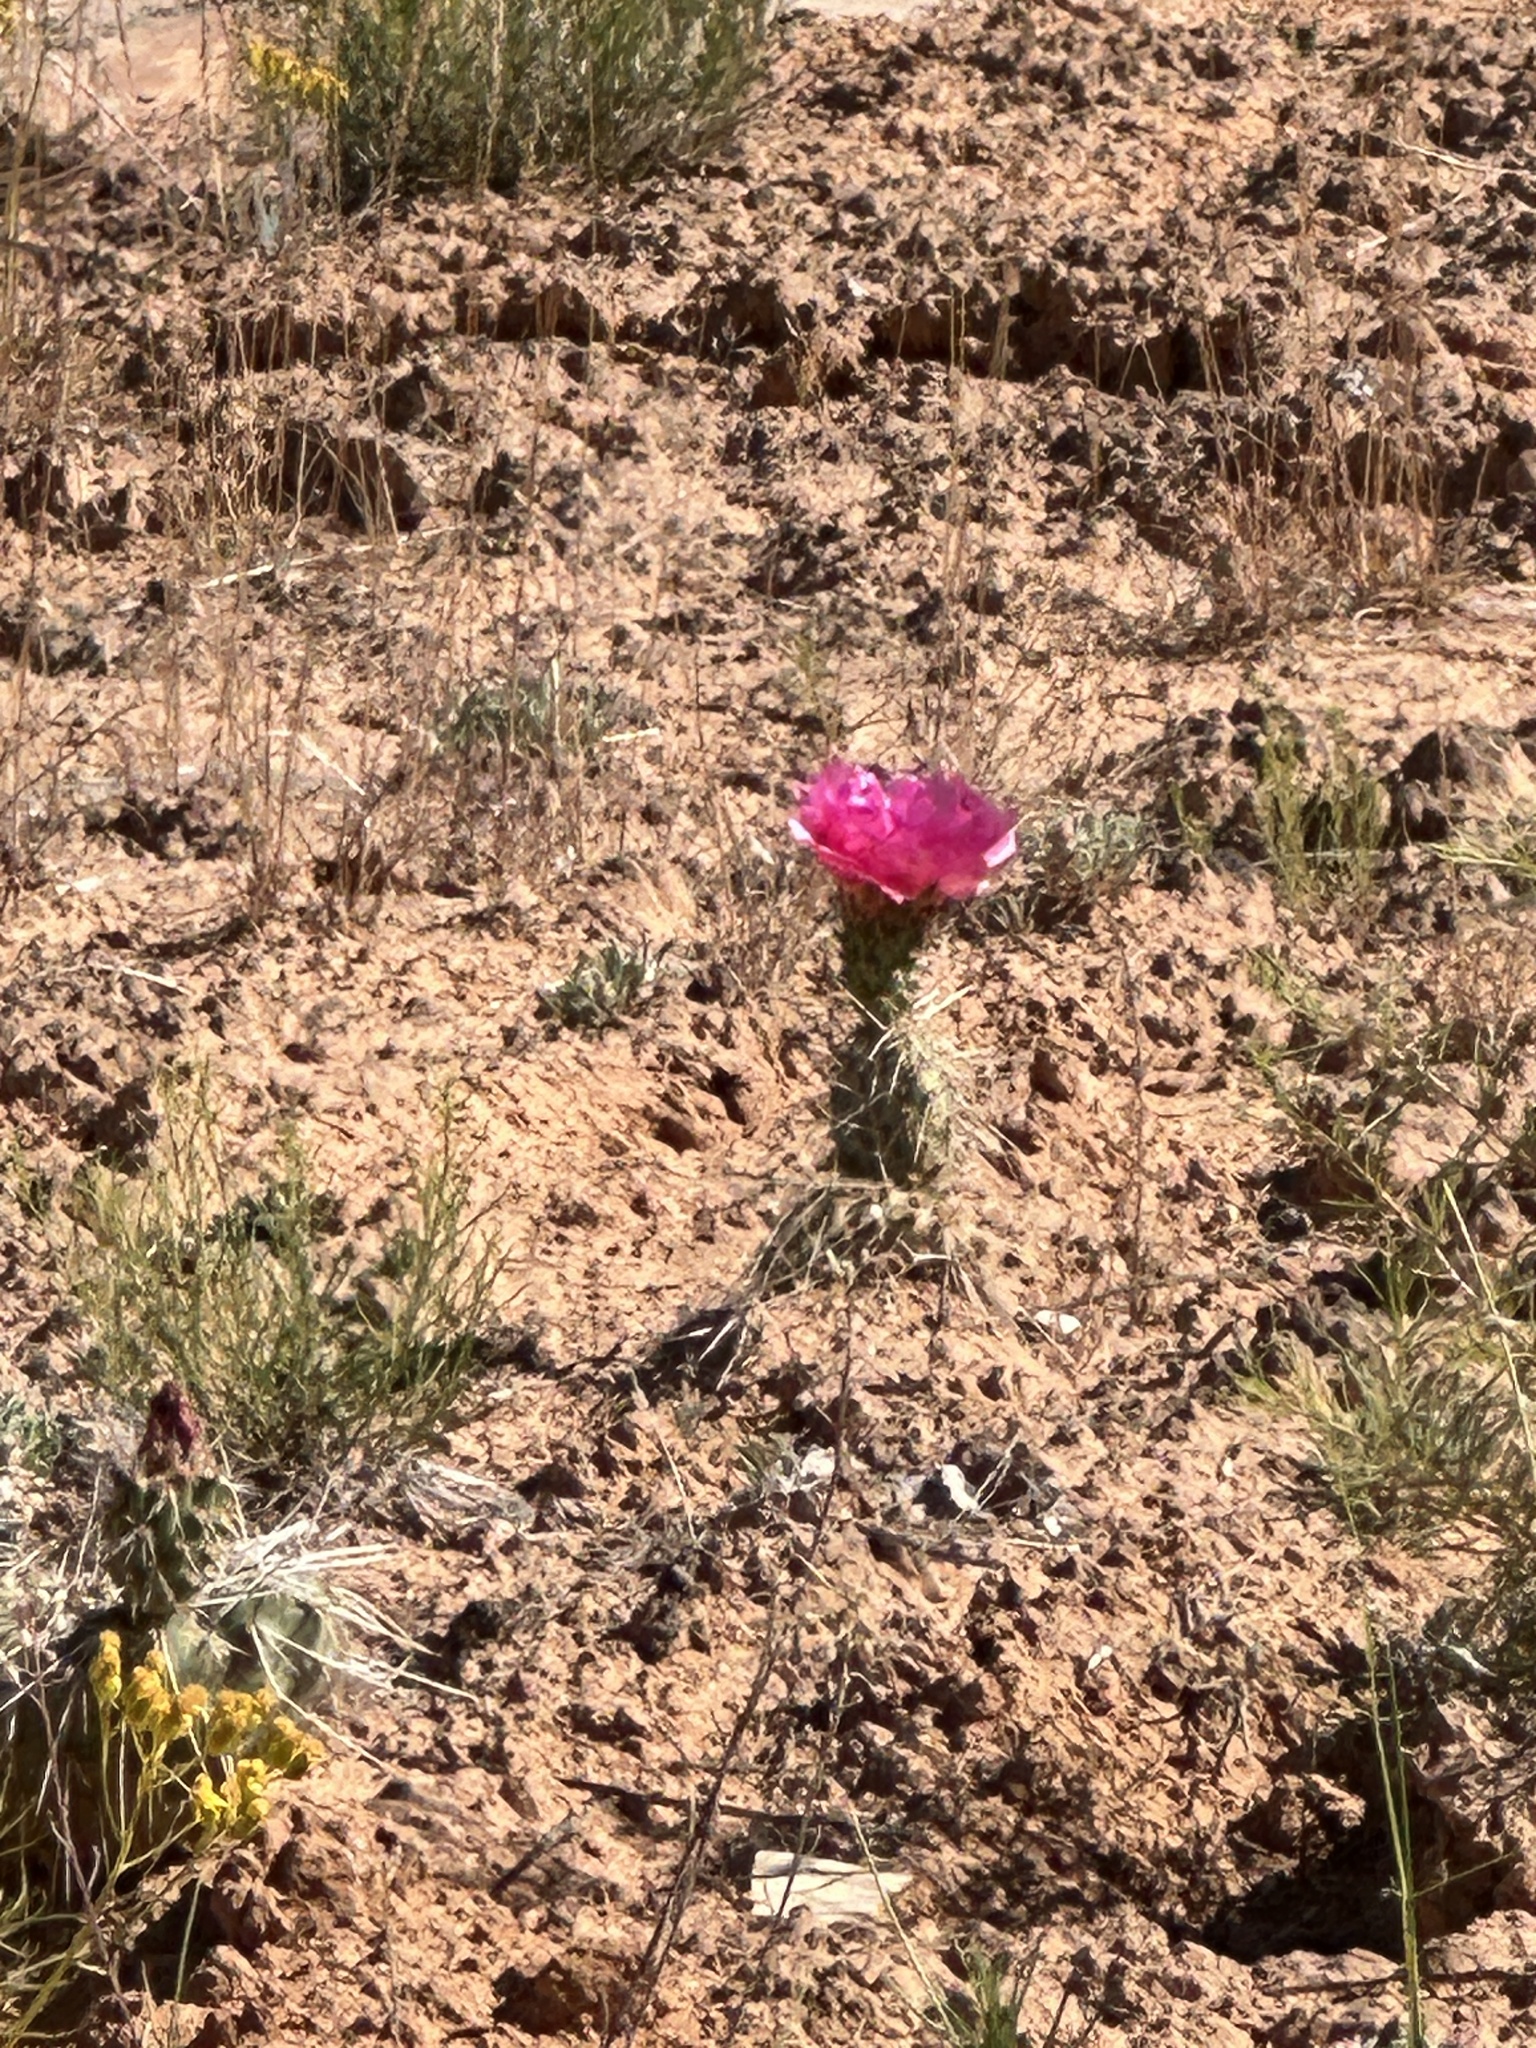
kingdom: Plantae
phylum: Tracheophyta
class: Magnoliopsida
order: Caryophyllales
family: Cactaceae
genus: Opuntia
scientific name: Opuntia polyacantha
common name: Plains prickly-pear
